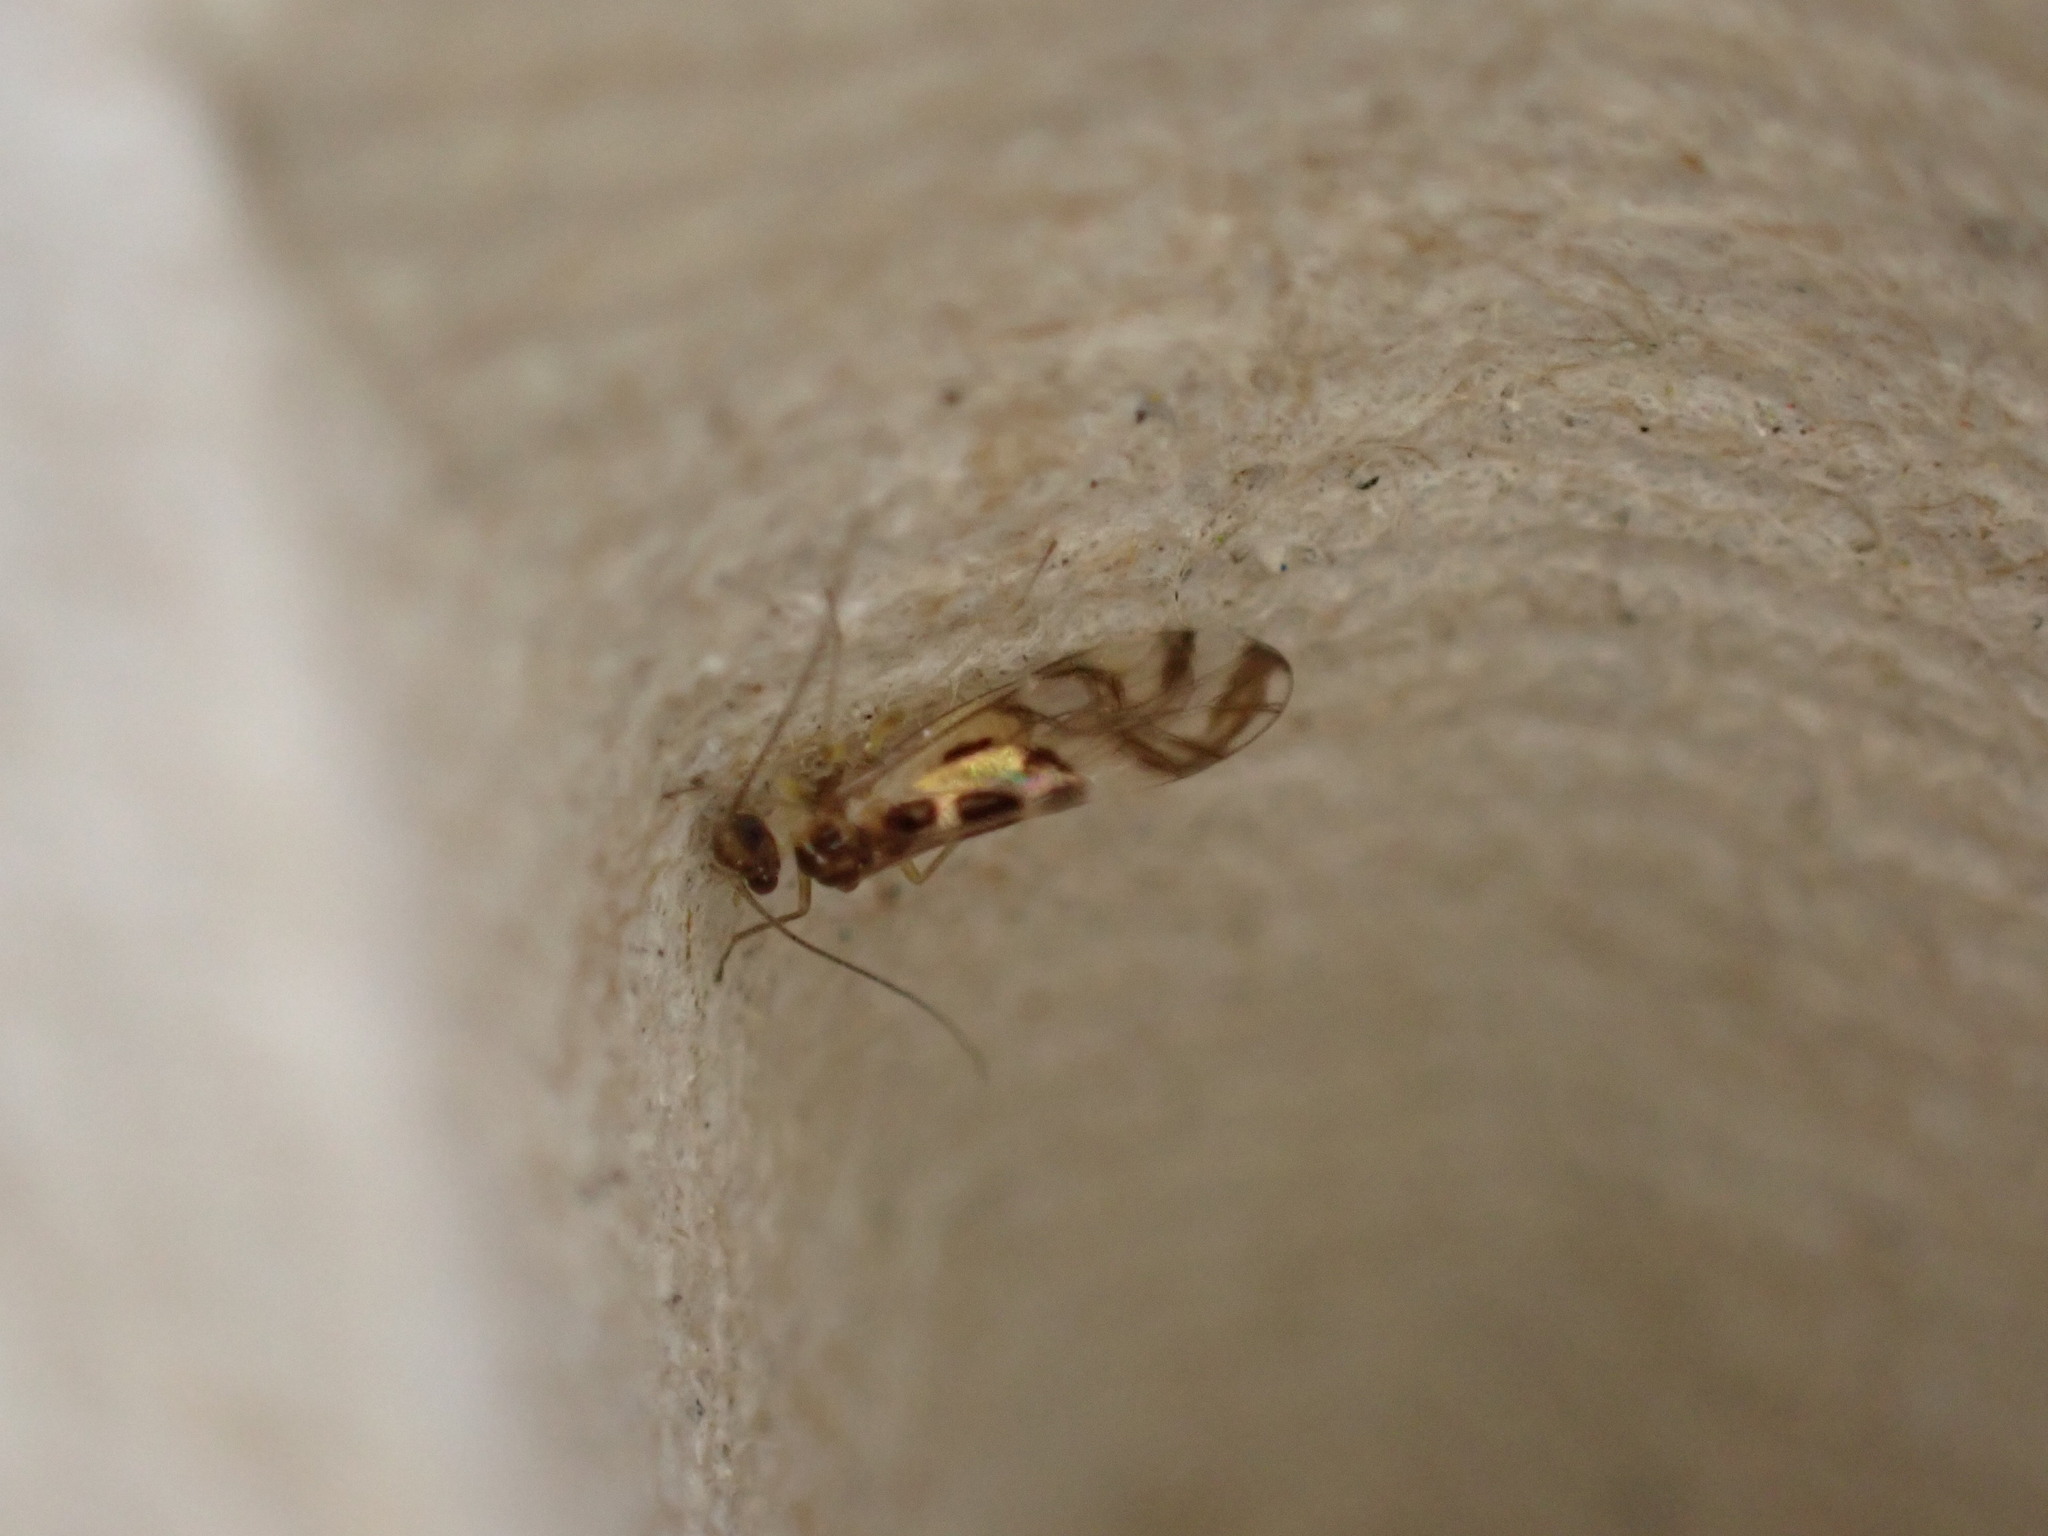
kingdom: Animalia
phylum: Arthropoda
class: Insecta
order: Psocodea
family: Stenopsocidae
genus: Graphopsocus
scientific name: Graphopsocus cruciatus
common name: Lizard bark louse
